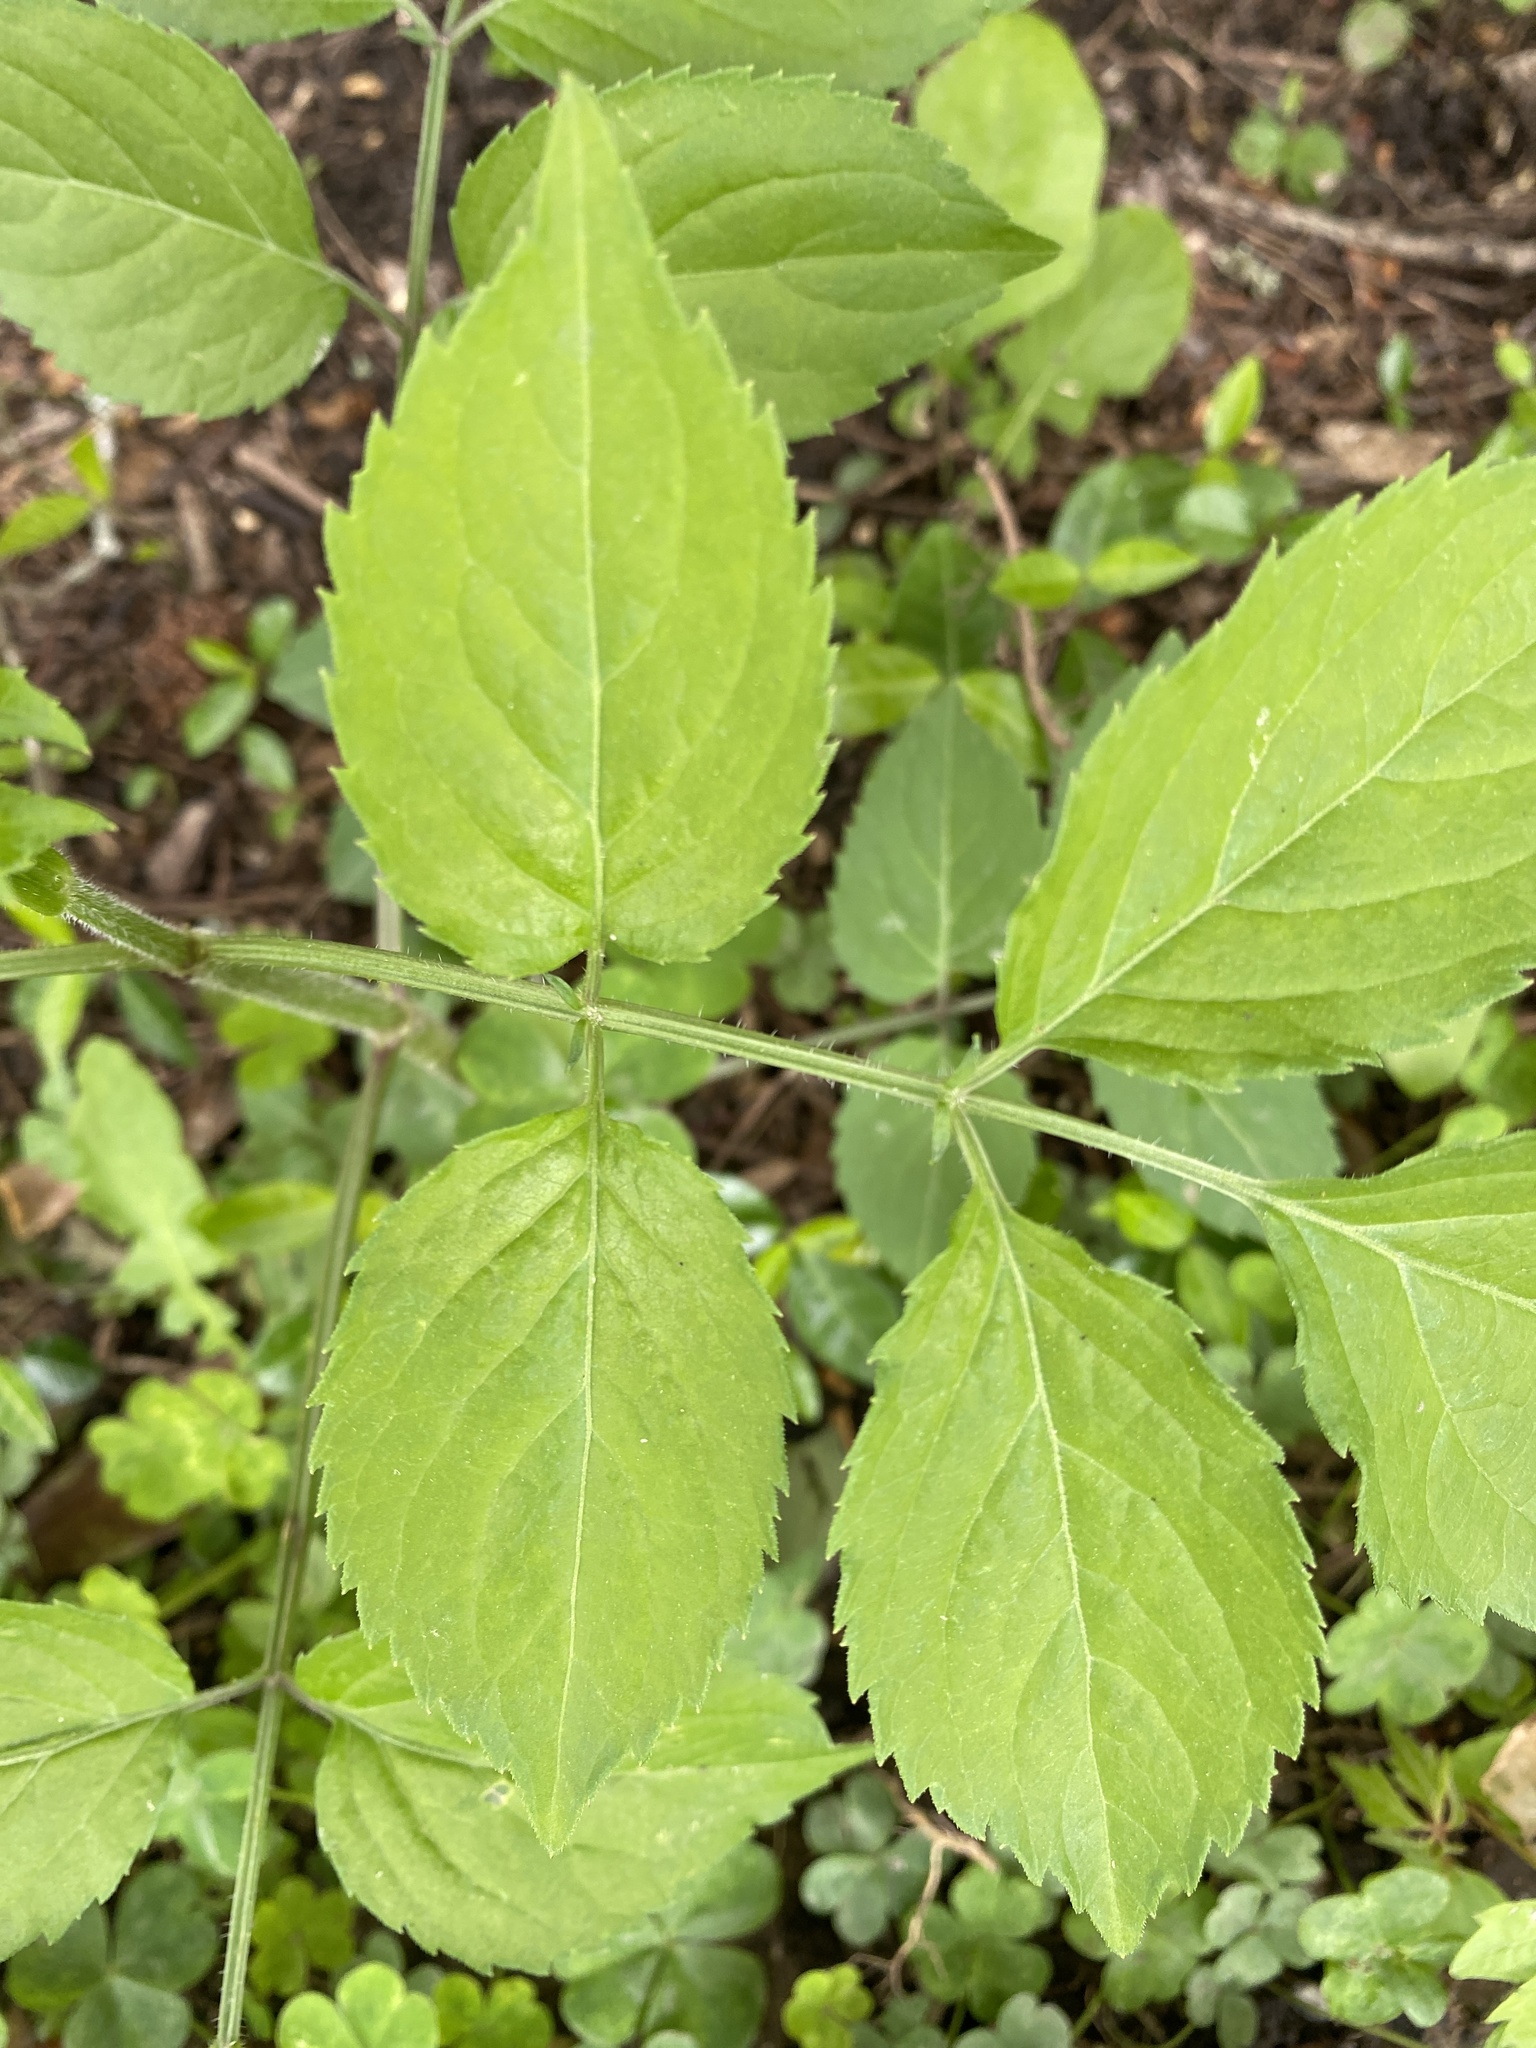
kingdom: Plantae
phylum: Tracheophyta
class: Magnoliopsida
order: Dipsacales
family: Viburnaceae
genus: Sambucus
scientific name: Sambucus canadensis
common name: American elder
